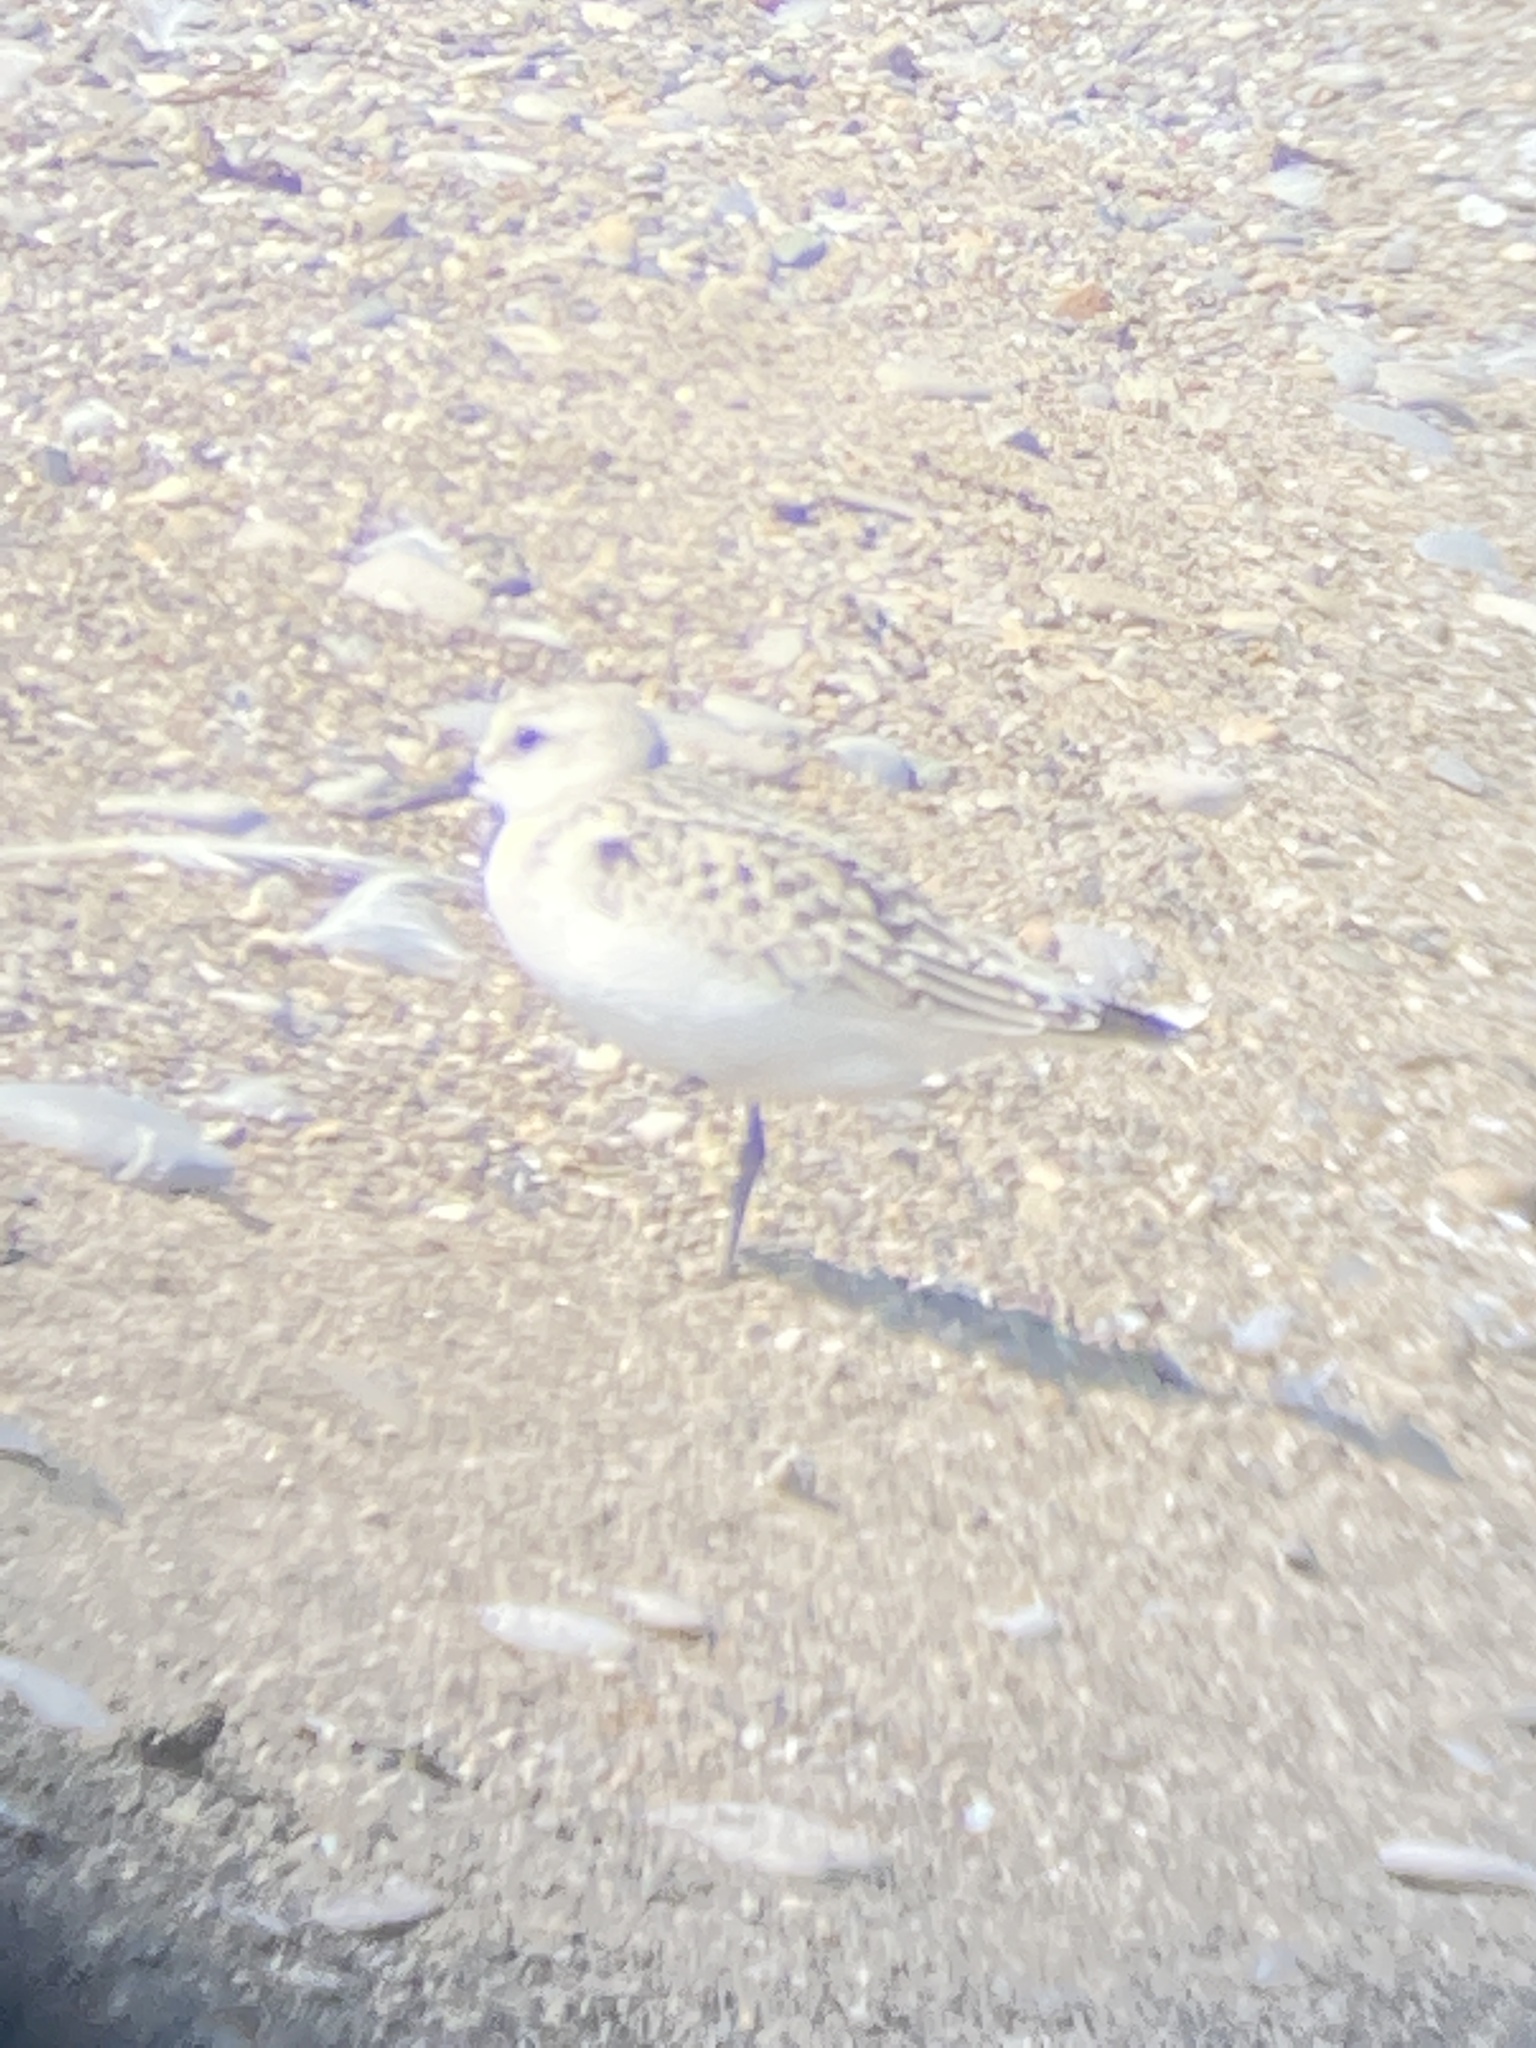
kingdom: Animalia
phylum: Chordata
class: Aves
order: Charadriiformes
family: Scolopacidae
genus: Calidris
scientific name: Calidris
